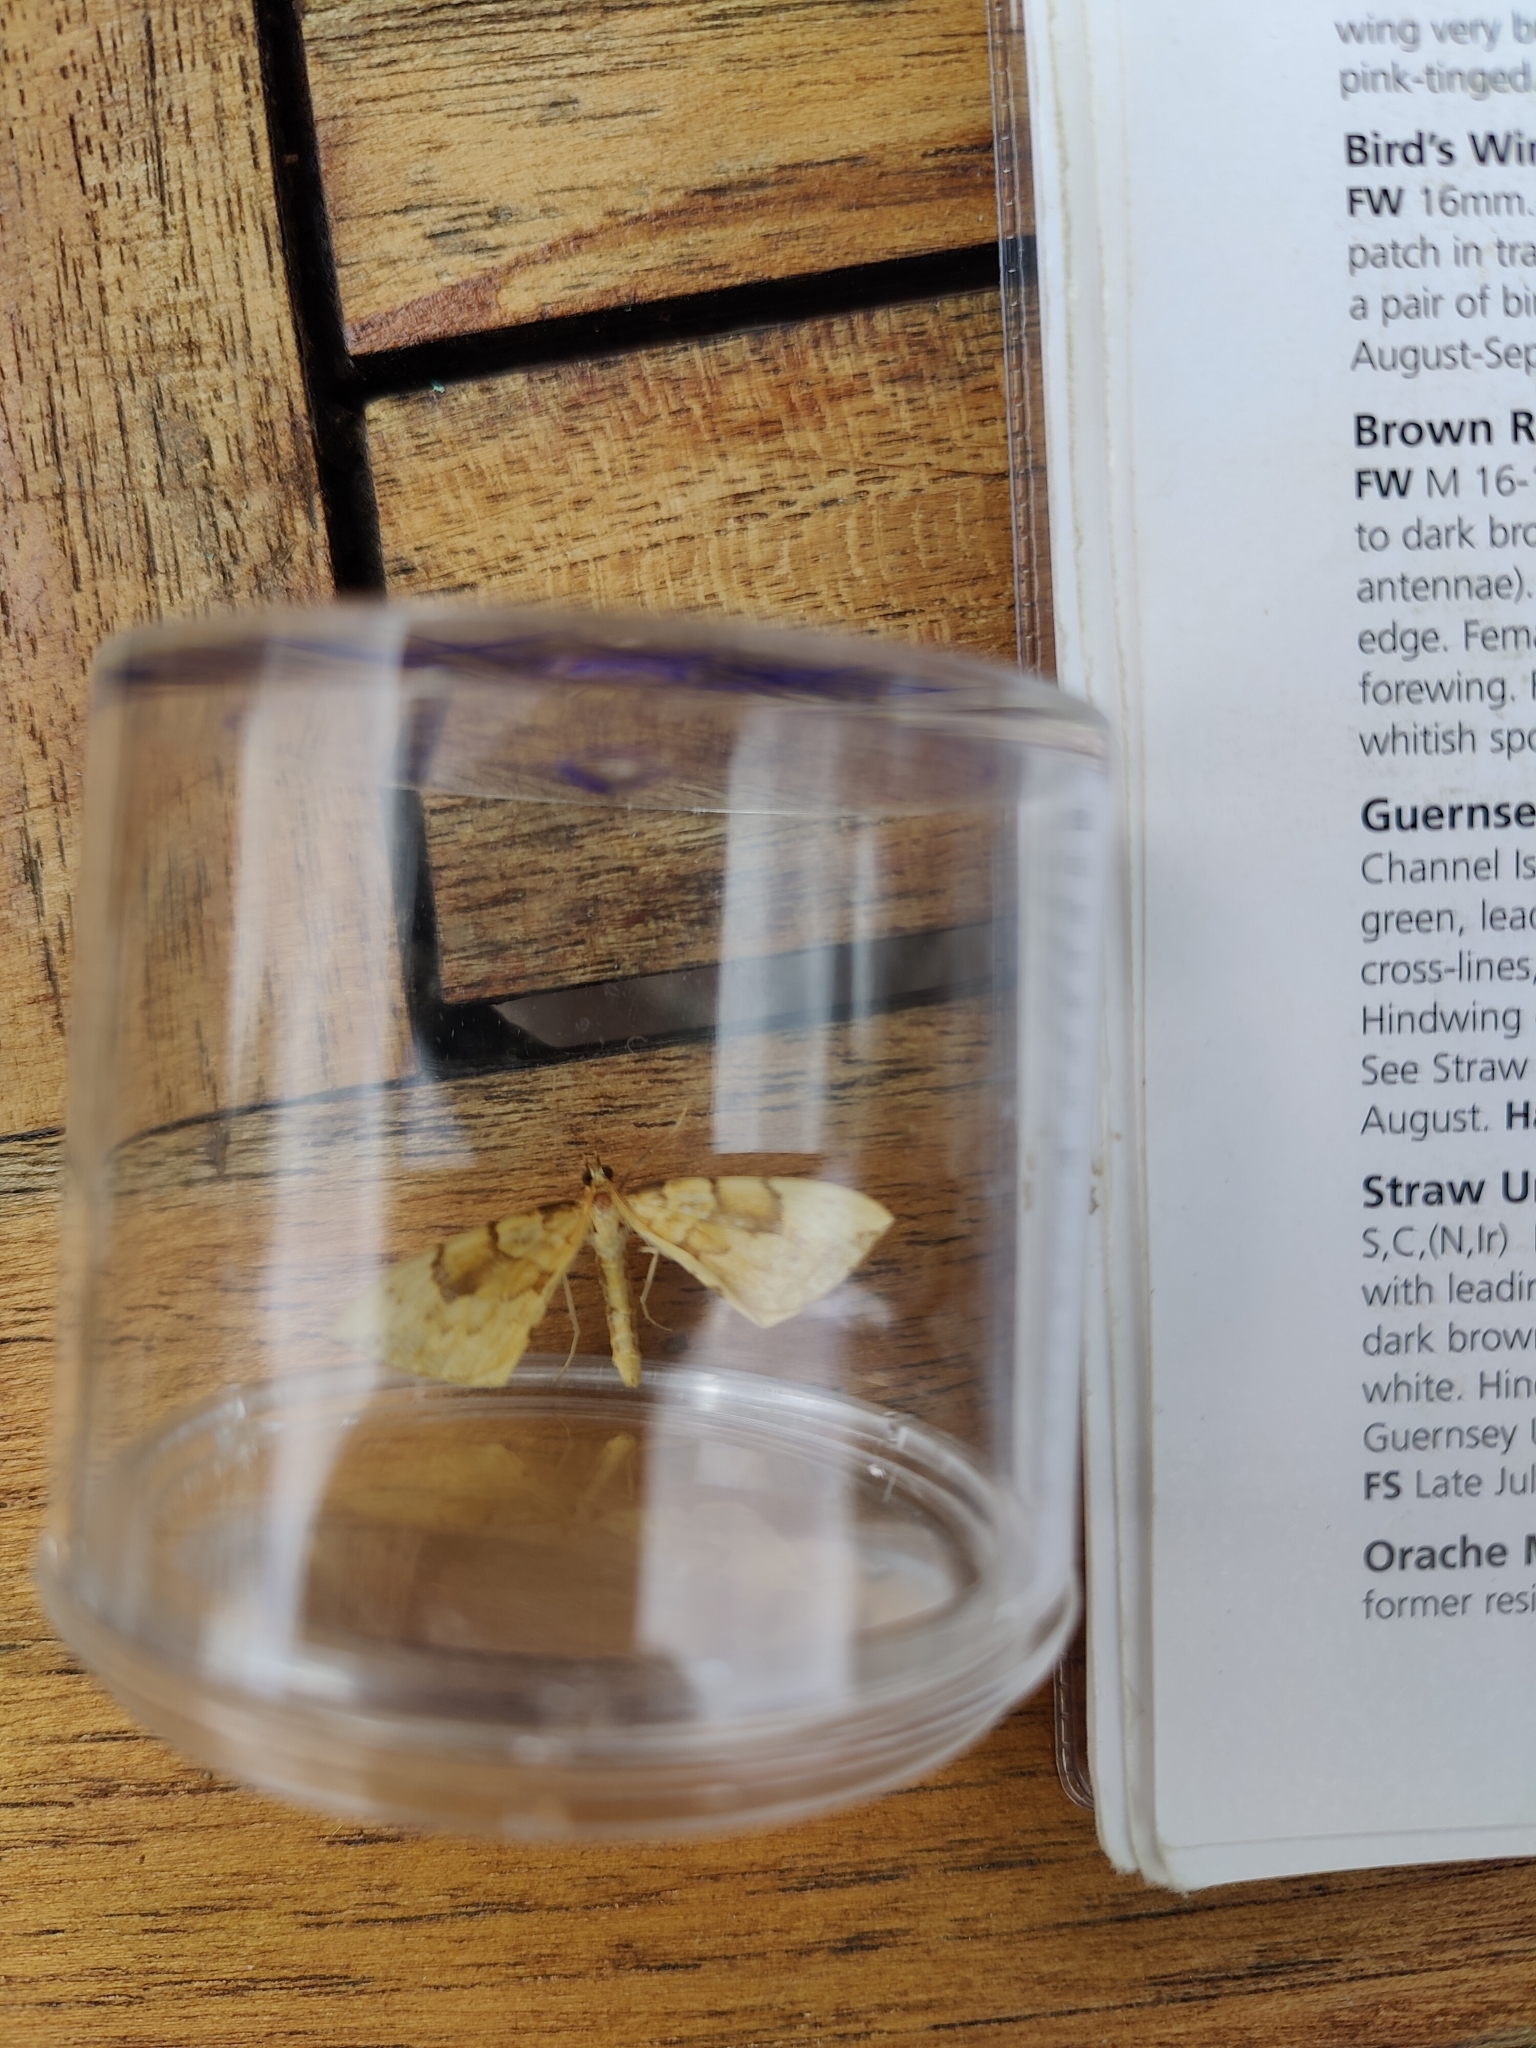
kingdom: Animalia
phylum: Arthropoda
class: Insecta
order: Lepidoptera
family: Geometridae
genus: Eulithis
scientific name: Eulithis pyraliata
